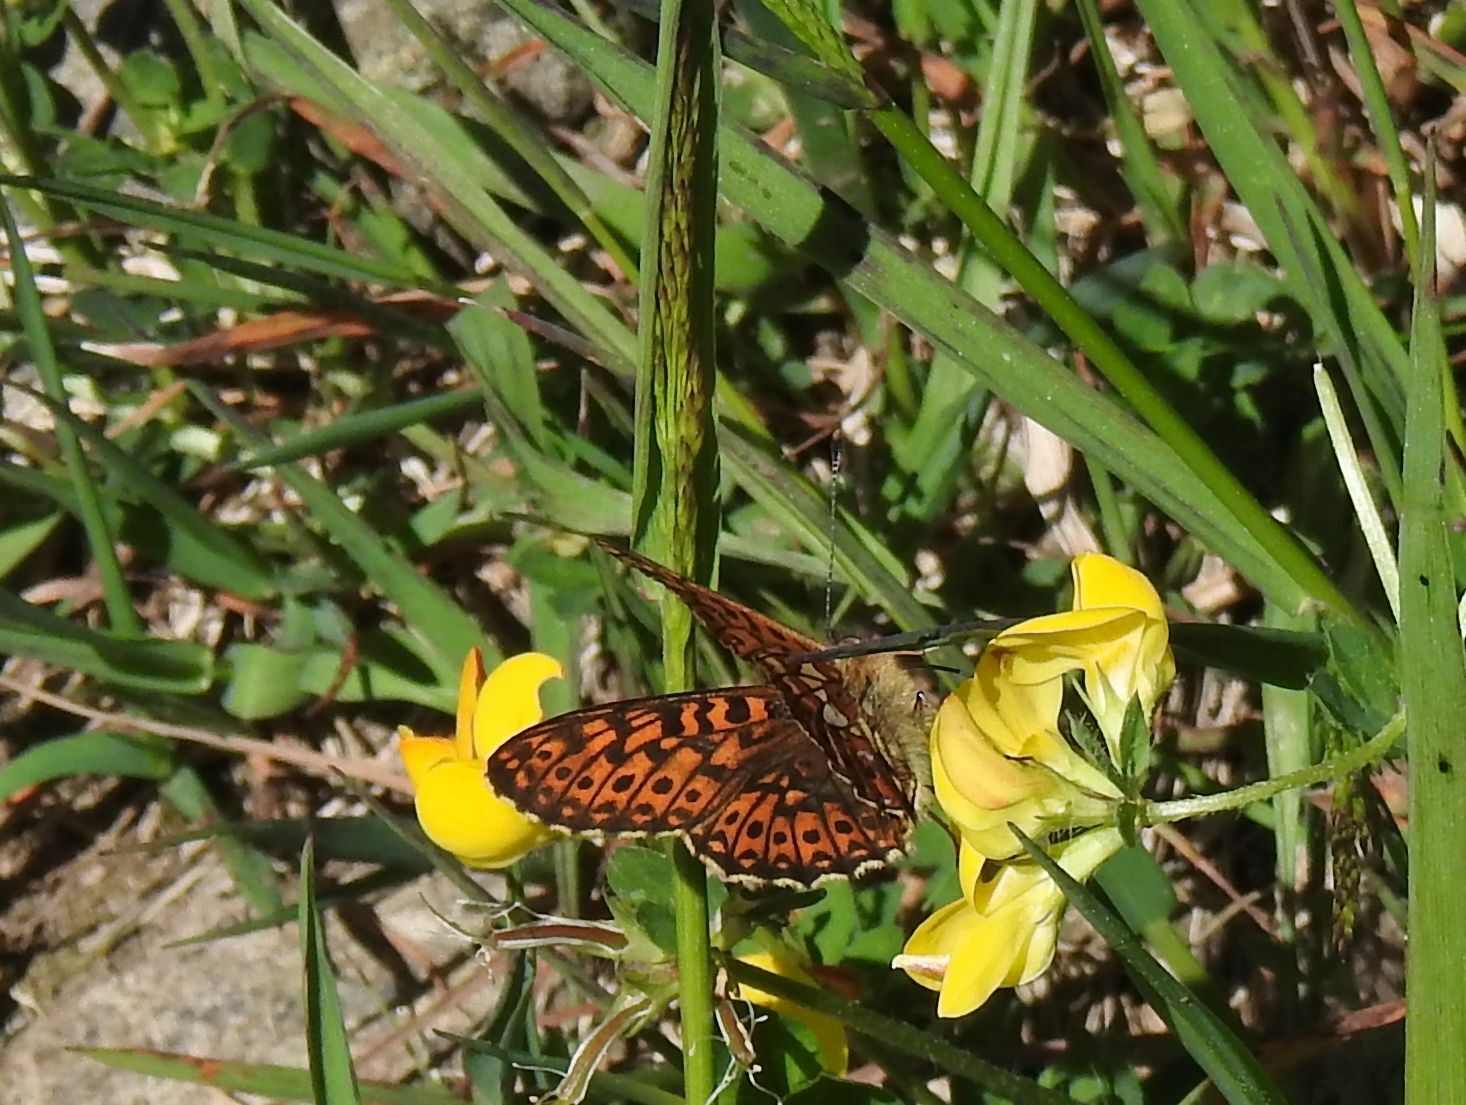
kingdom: Animalia
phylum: Arthropoda
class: Insecta
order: Lepidoptera
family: Nymphalidae
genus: Clossiana
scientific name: Clossiana euphrosyne
